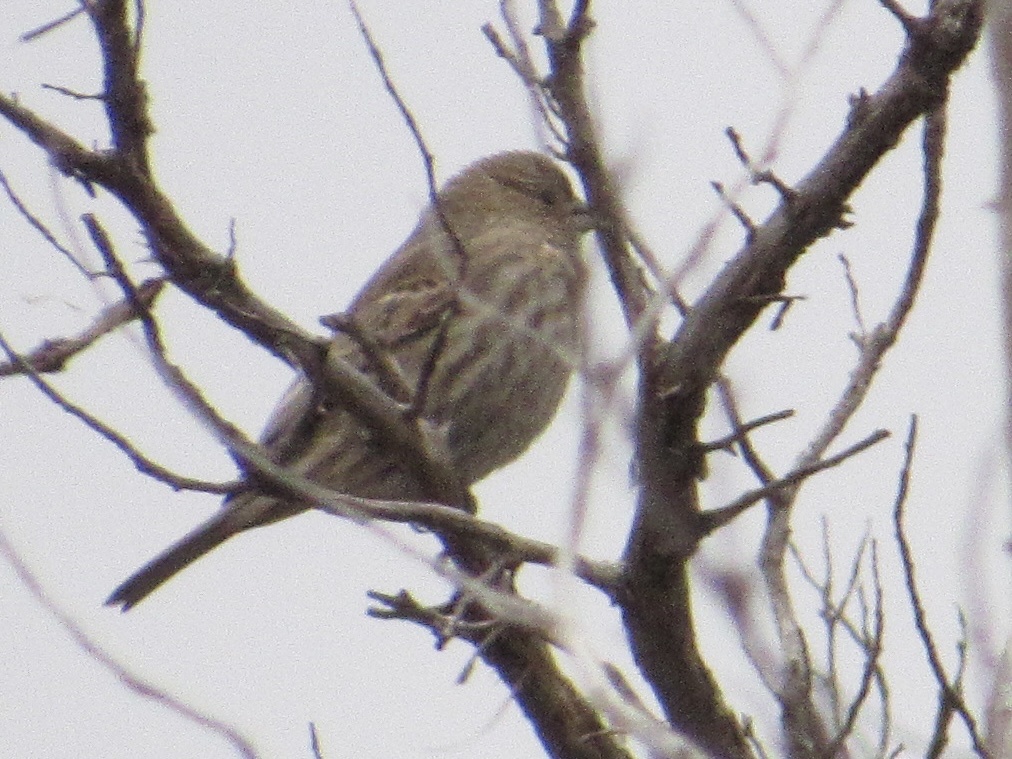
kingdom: Animalia
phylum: Chordata
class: Aves
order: Passeriformes
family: Fringillidae
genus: Haemorhous
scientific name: Haemorhous mexicanus
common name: House finch
